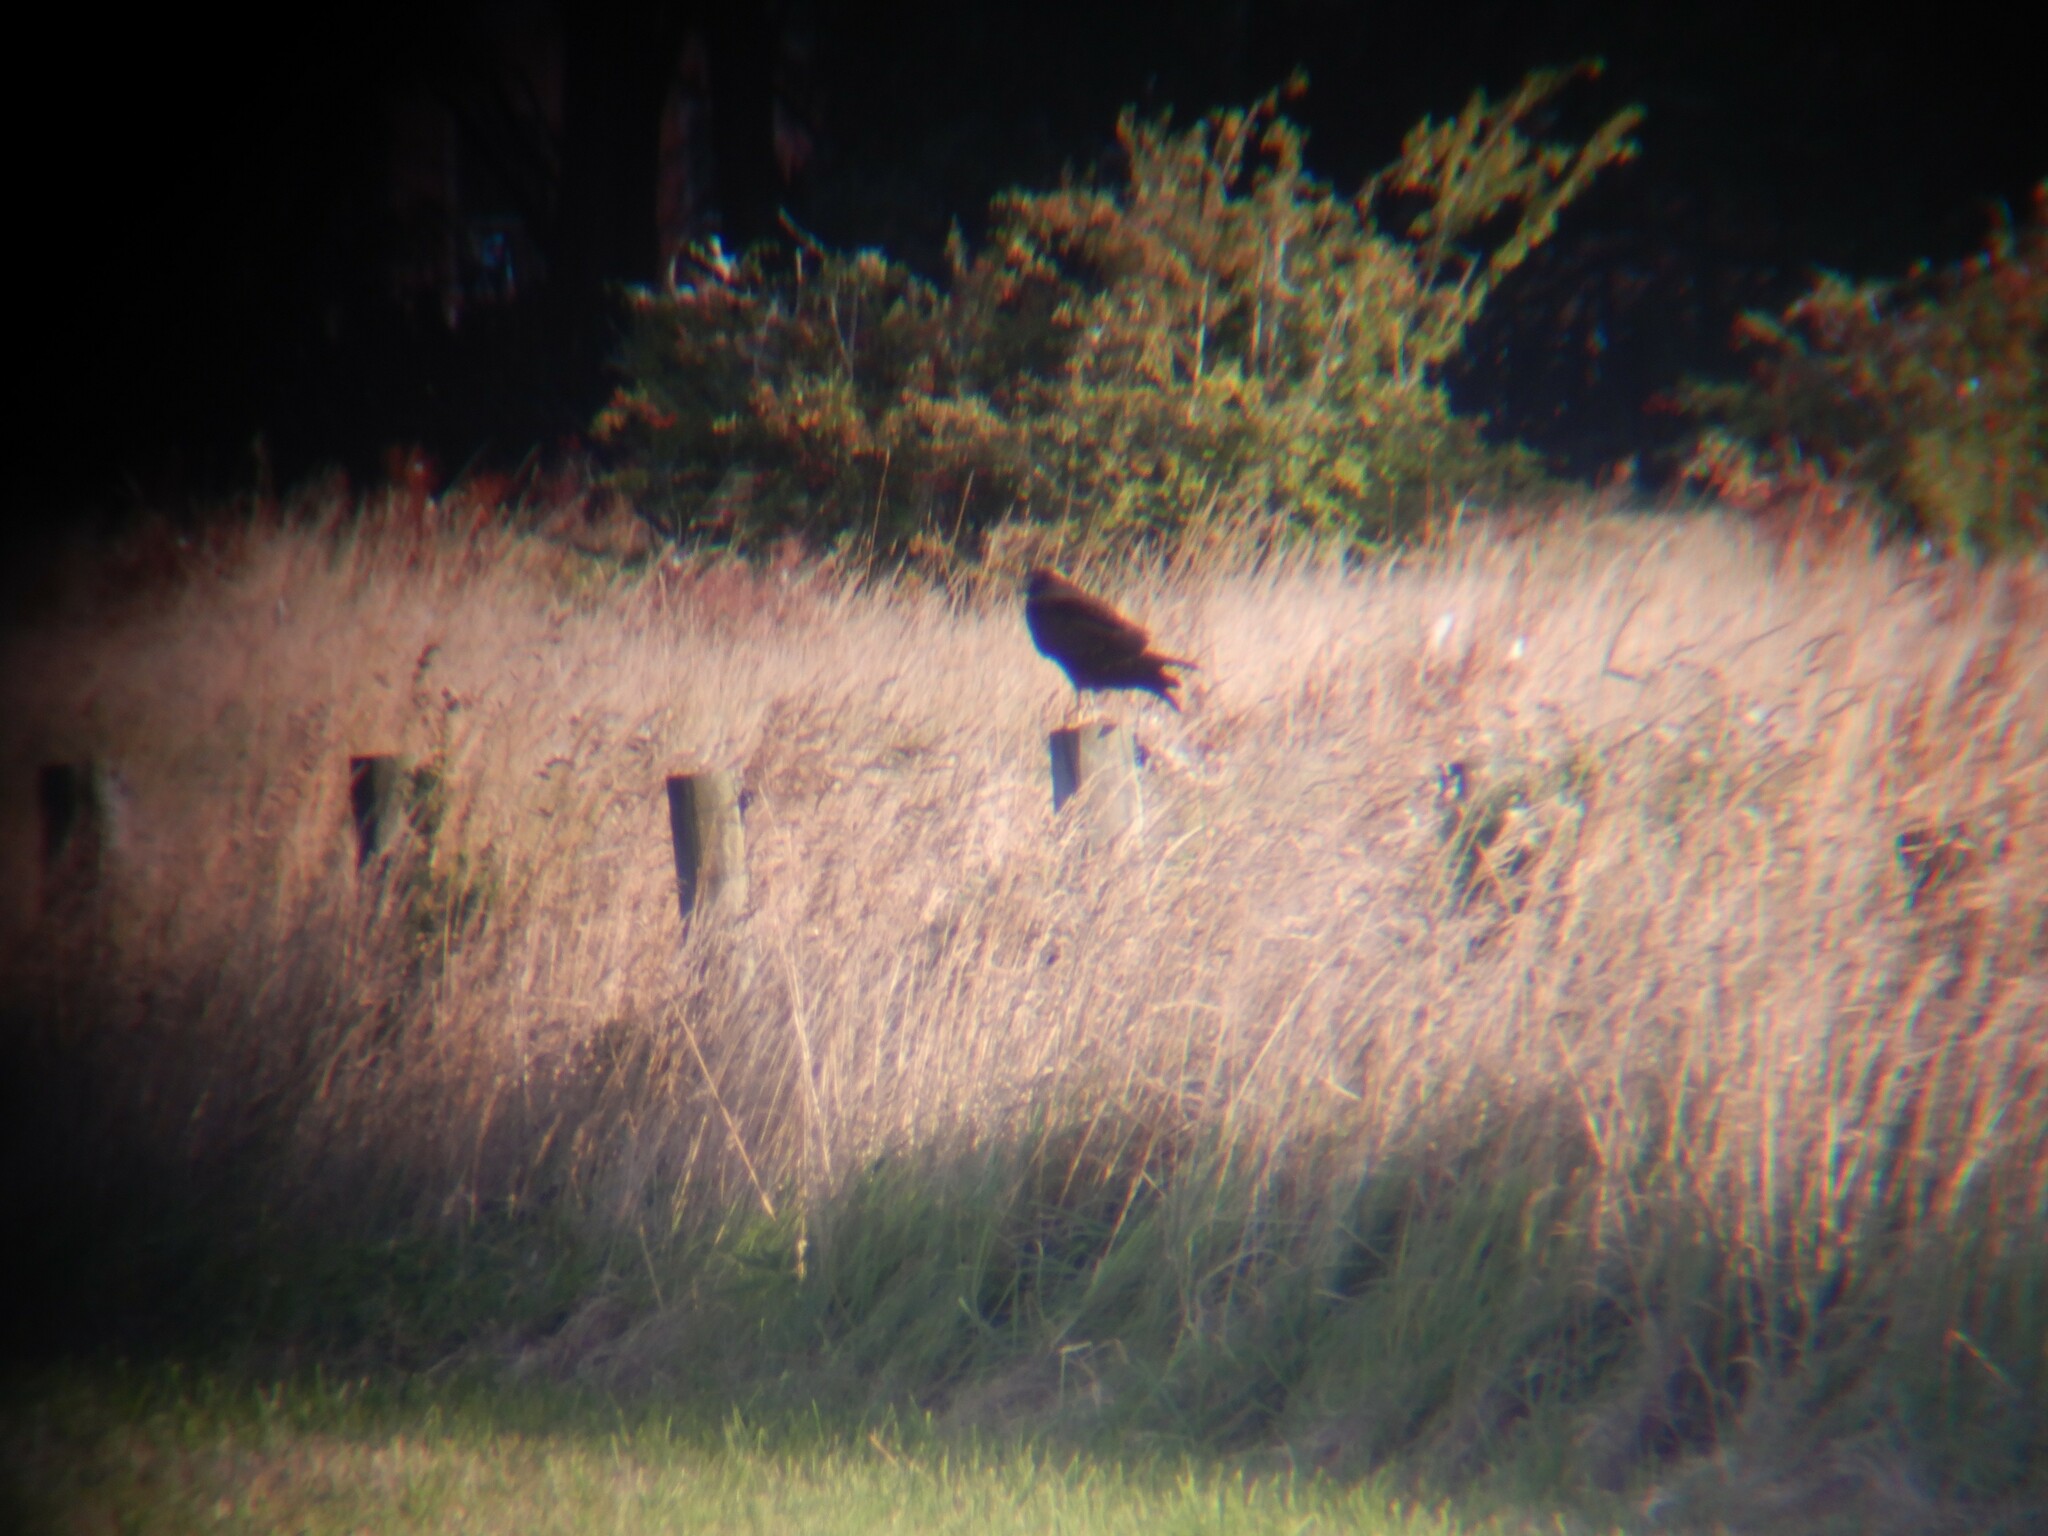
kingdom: Animalia
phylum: Chordata
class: Aves
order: Accipitriformes
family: Accipitridae
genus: Circus
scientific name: Circus approximans
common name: Swamp harrier
